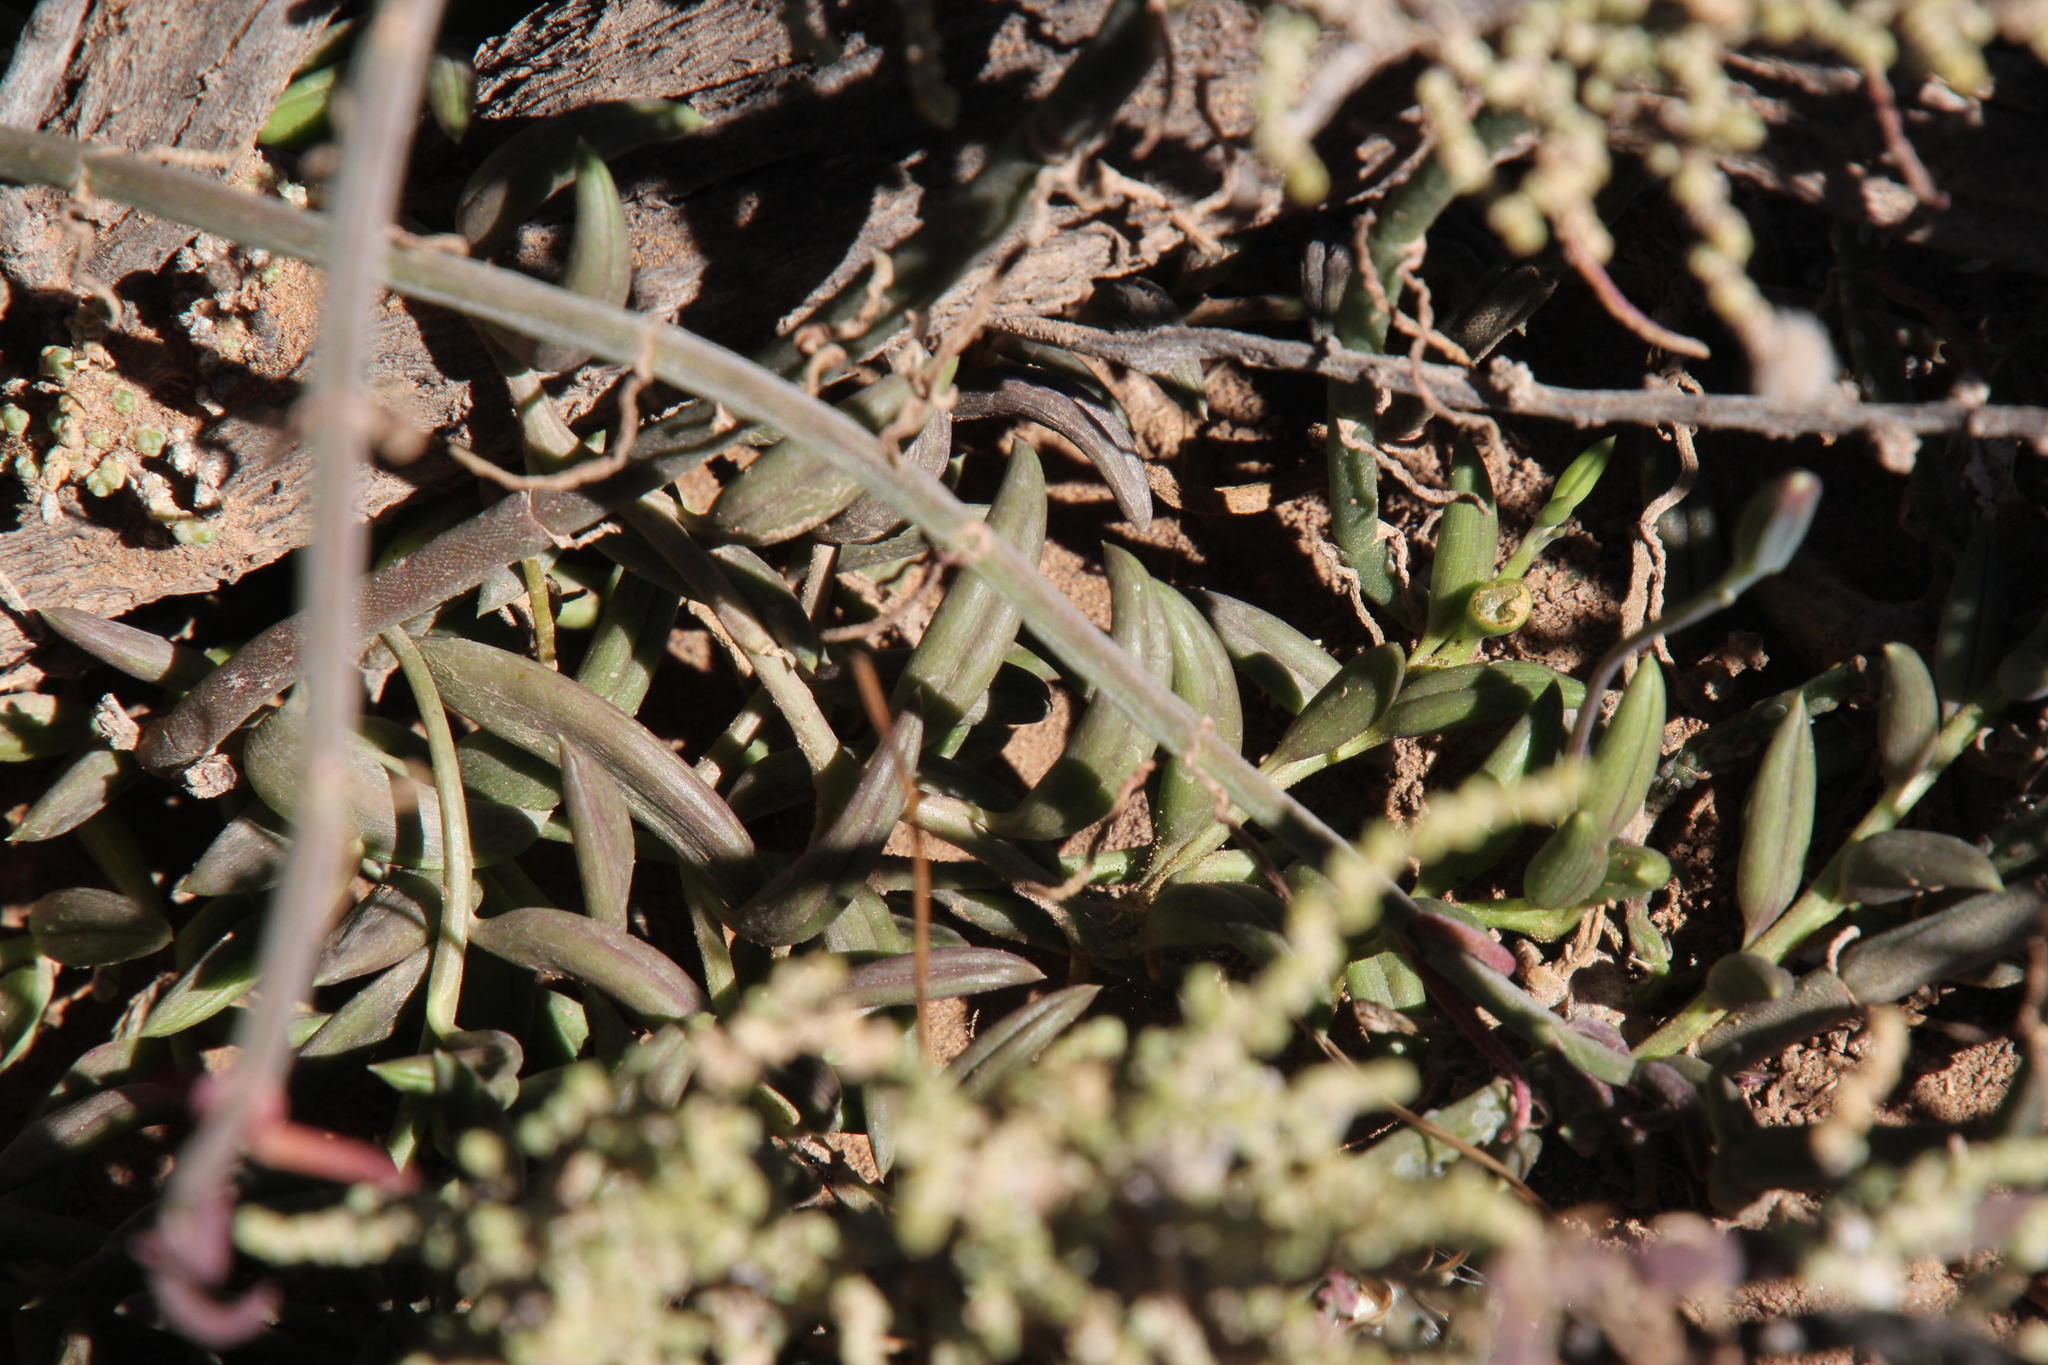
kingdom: Plantae
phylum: Tracheophyta
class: Magnoliopsida
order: Asterales
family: Asteraceae
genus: Curio
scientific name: Curio radicans
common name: Creeping-berry
